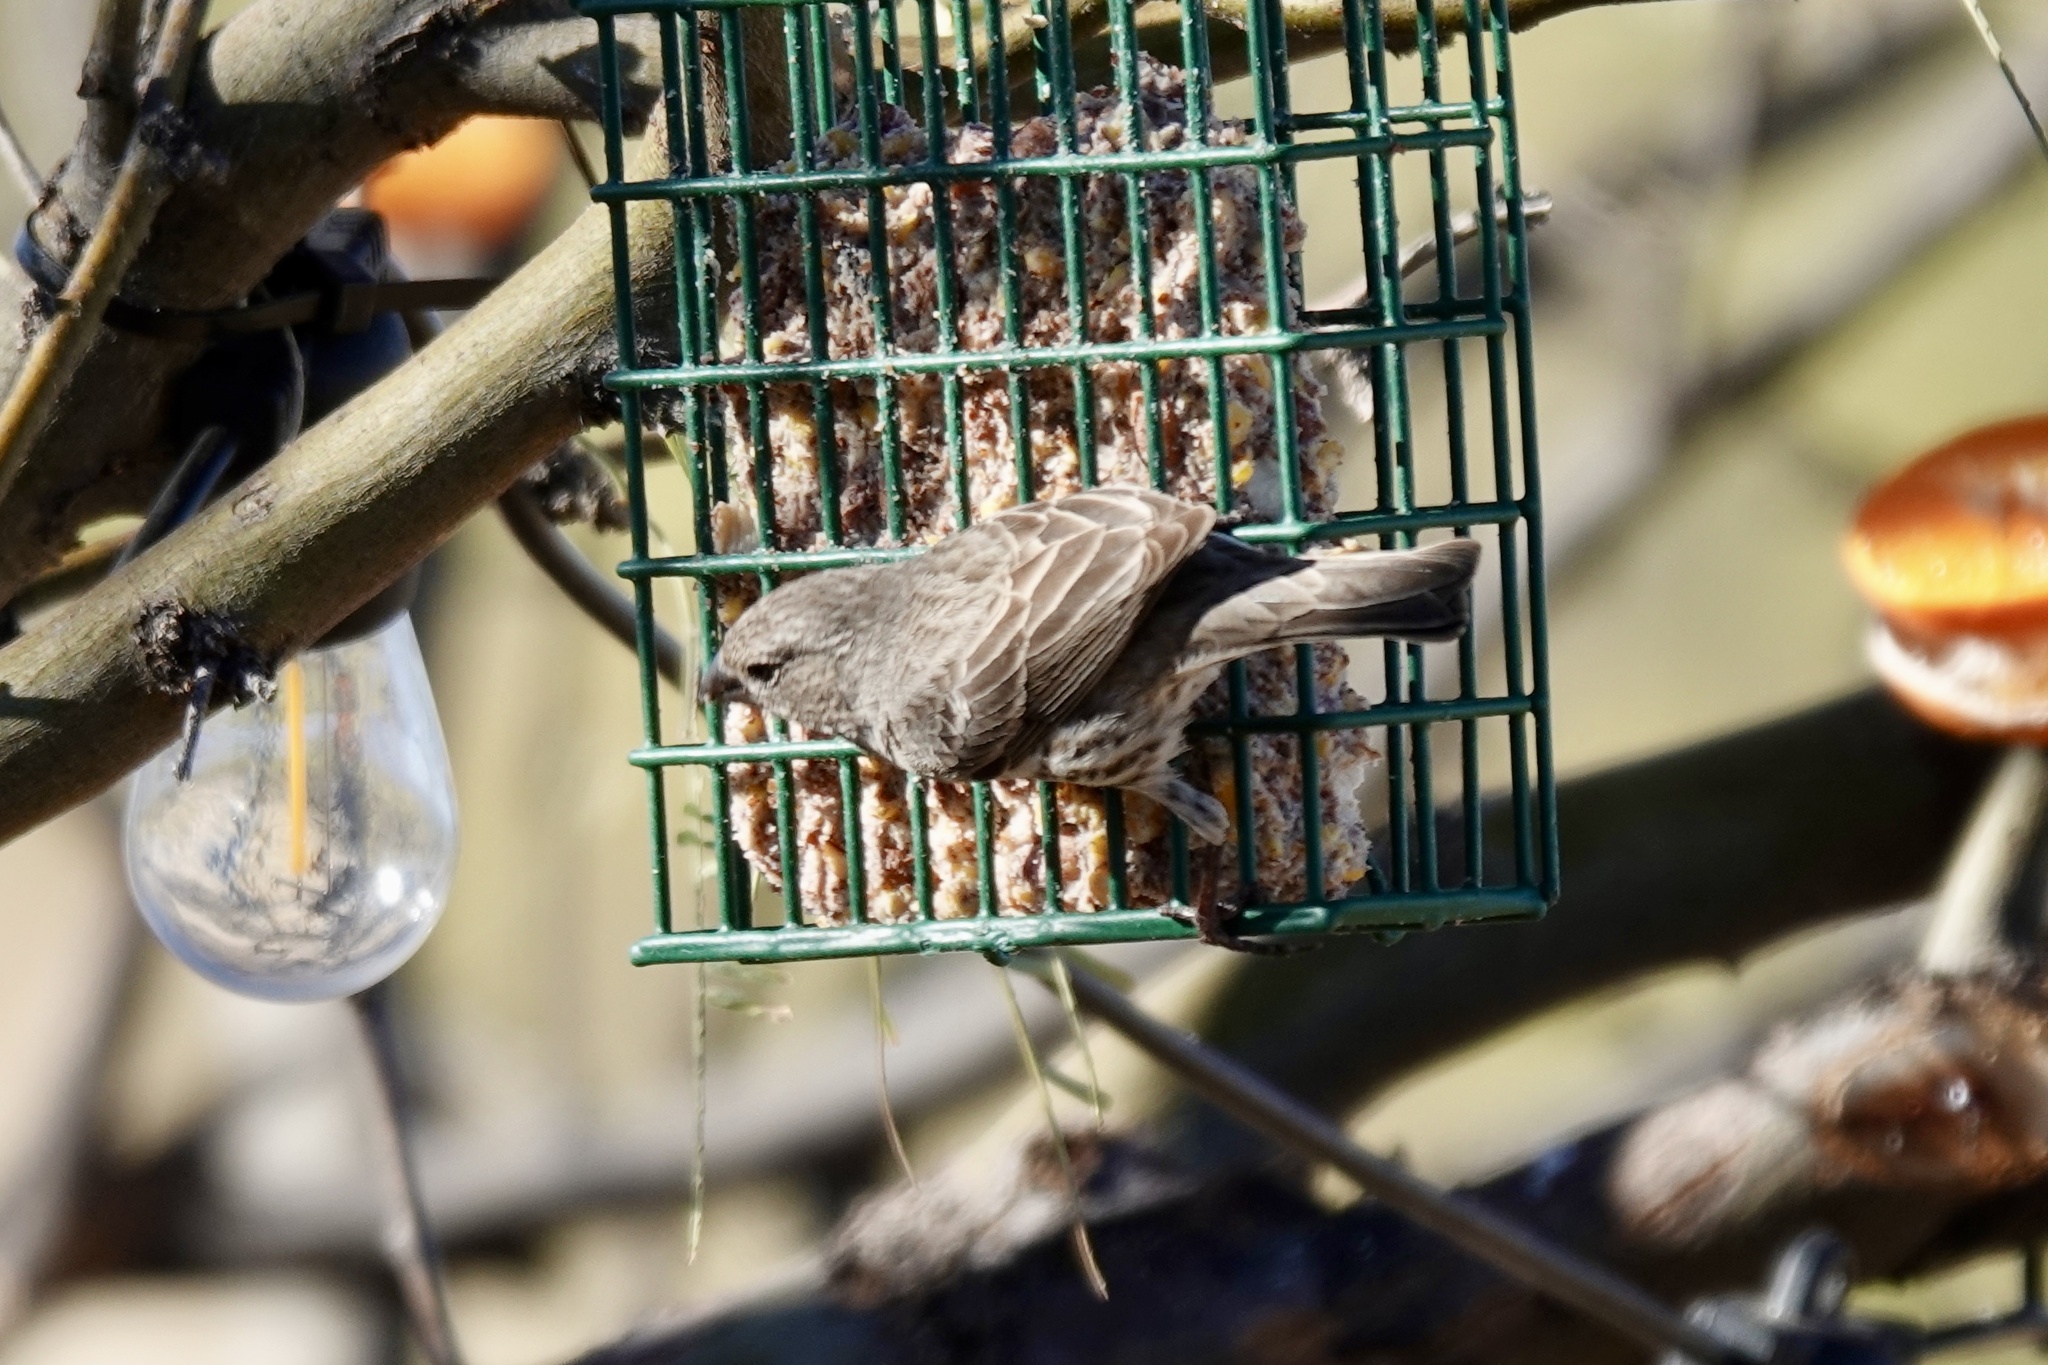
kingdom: Animalia
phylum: Chordata
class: Aves
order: Passeriformes
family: Fringillidae
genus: Haemorhous
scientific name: Haemorhous mexicanus
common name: House finch
